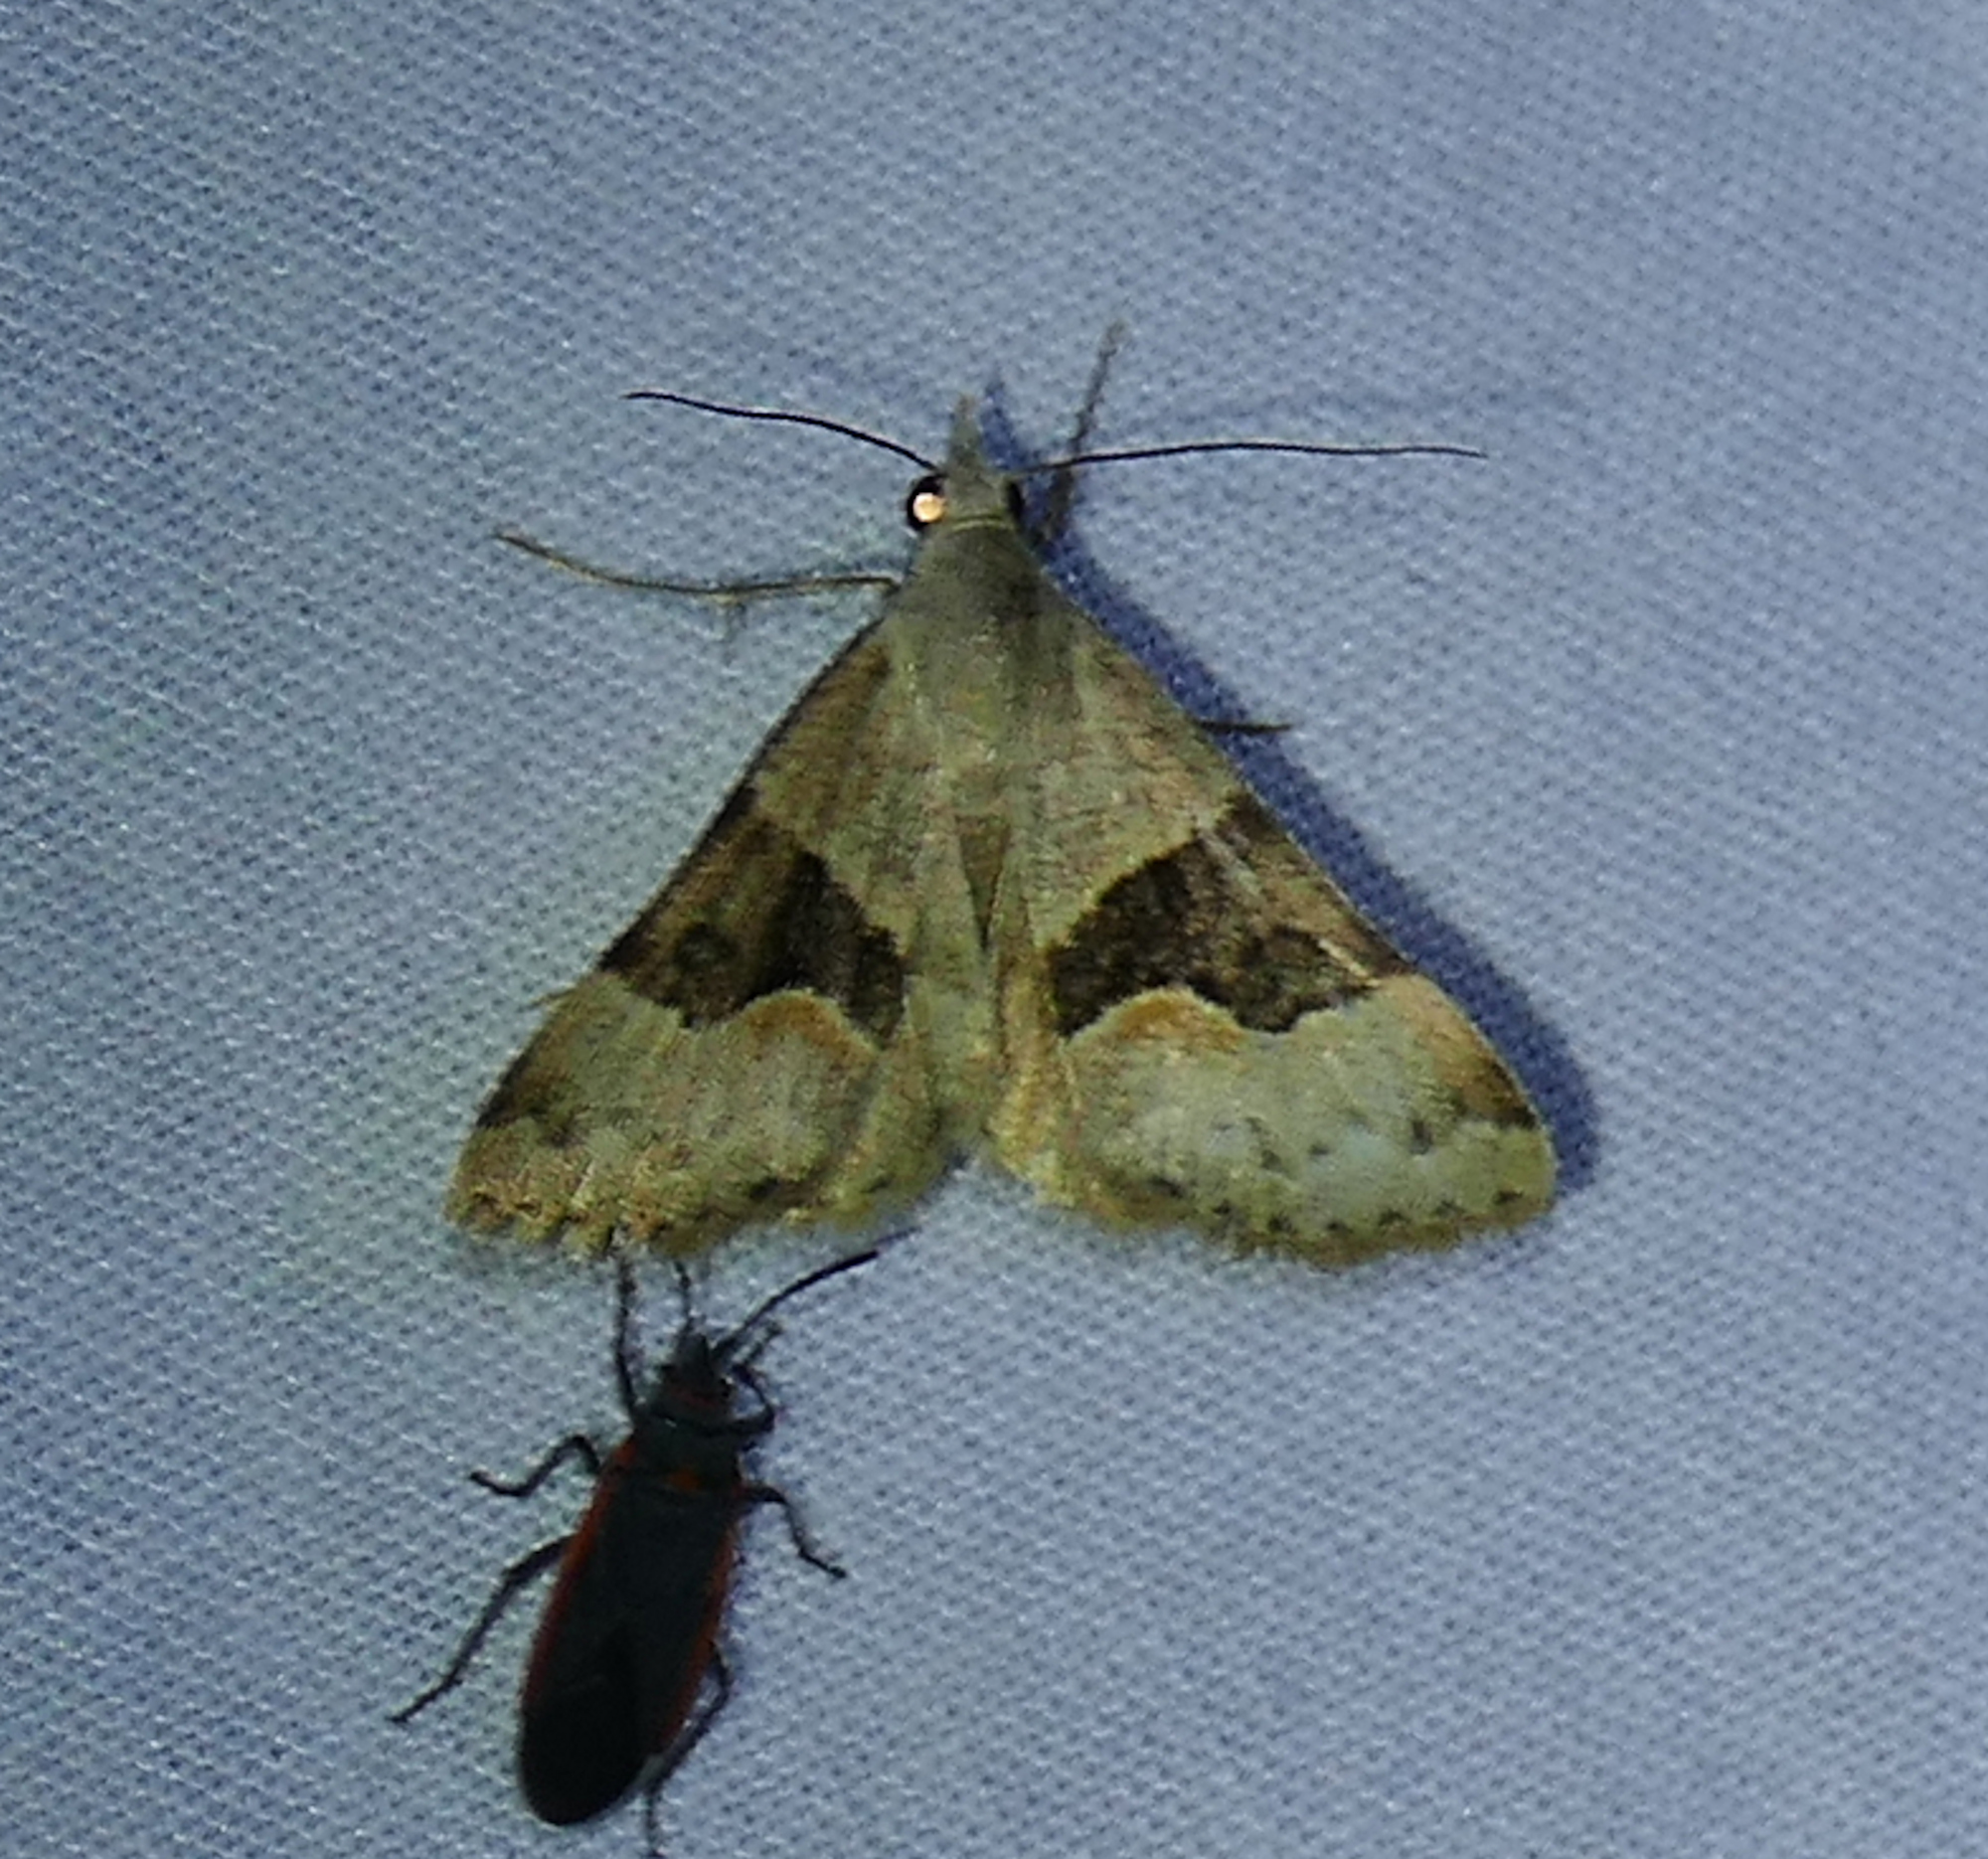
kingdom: Animalia
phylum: Arthropoda
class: Insecta
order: Lepidoptera
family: Erebidae
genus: Hemeroplanis
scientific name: Hemeroplanis incusalis
